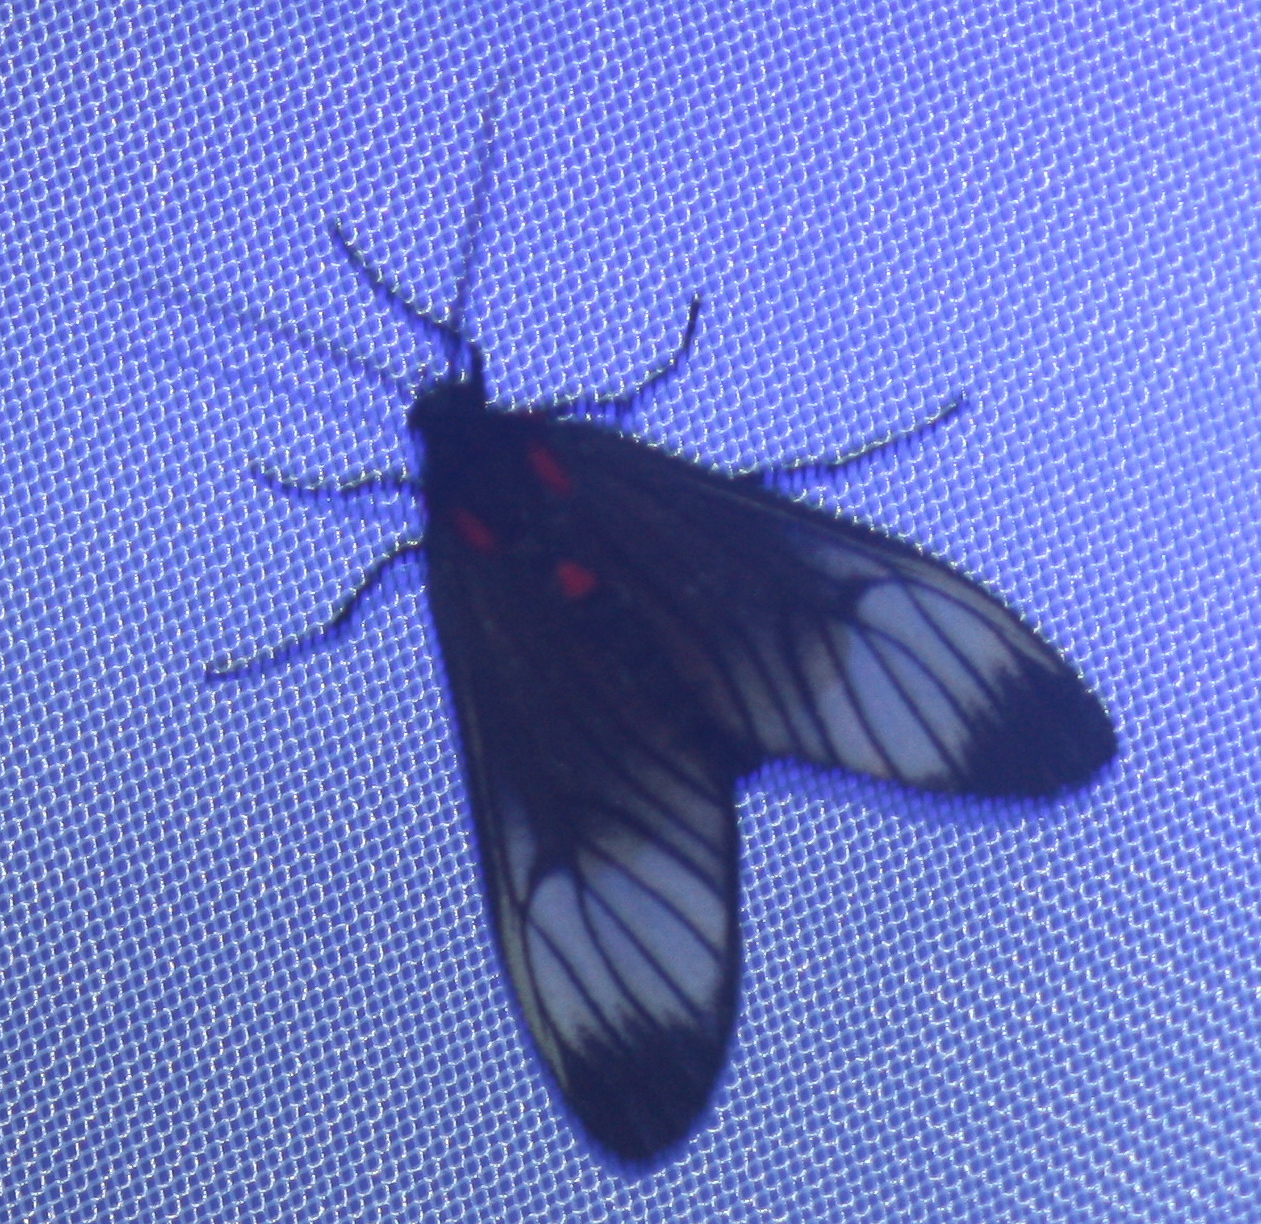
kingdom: Animalia
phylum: Arthropoda
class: Insecta
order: Lepidoptera
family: Erebidae
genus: Hyperphara
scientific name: Hyperphara clusia
